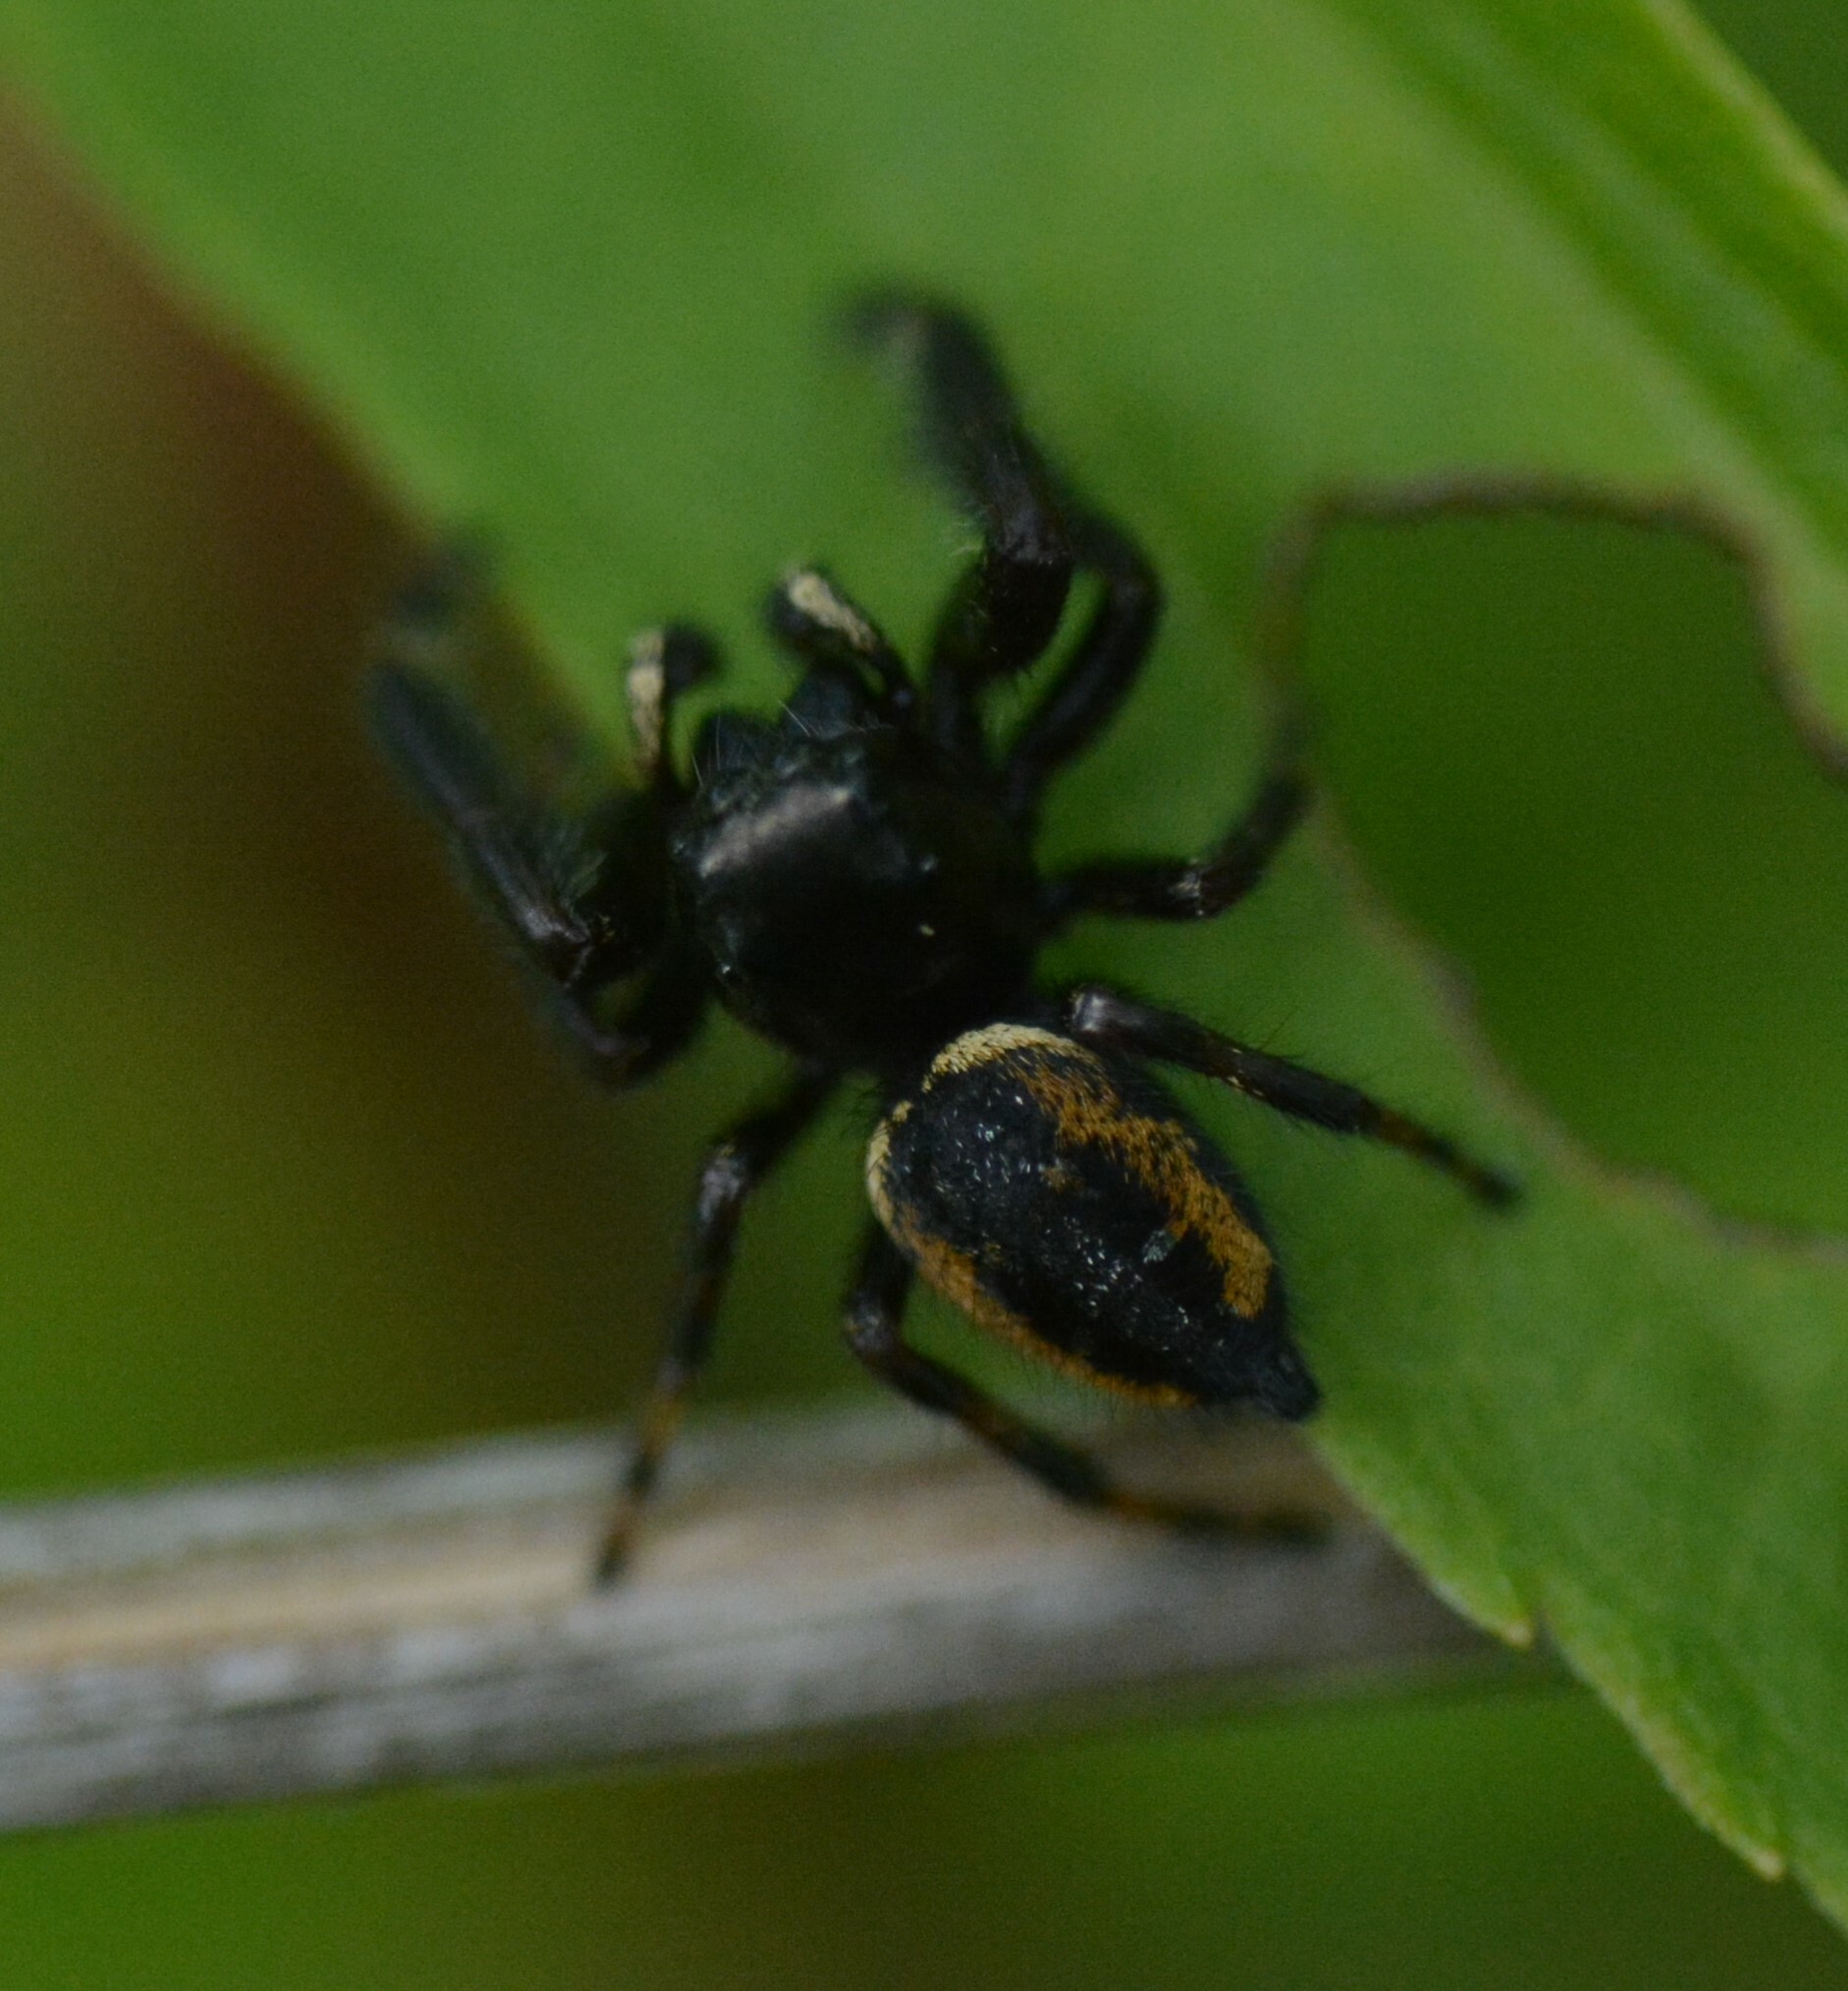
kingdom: Animalia
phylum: Arthropoda
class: Arachnida
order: Araneae
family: Salticidae
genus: Phidippus
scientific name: Phidippus clarus
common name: Brilliant jumping spider
